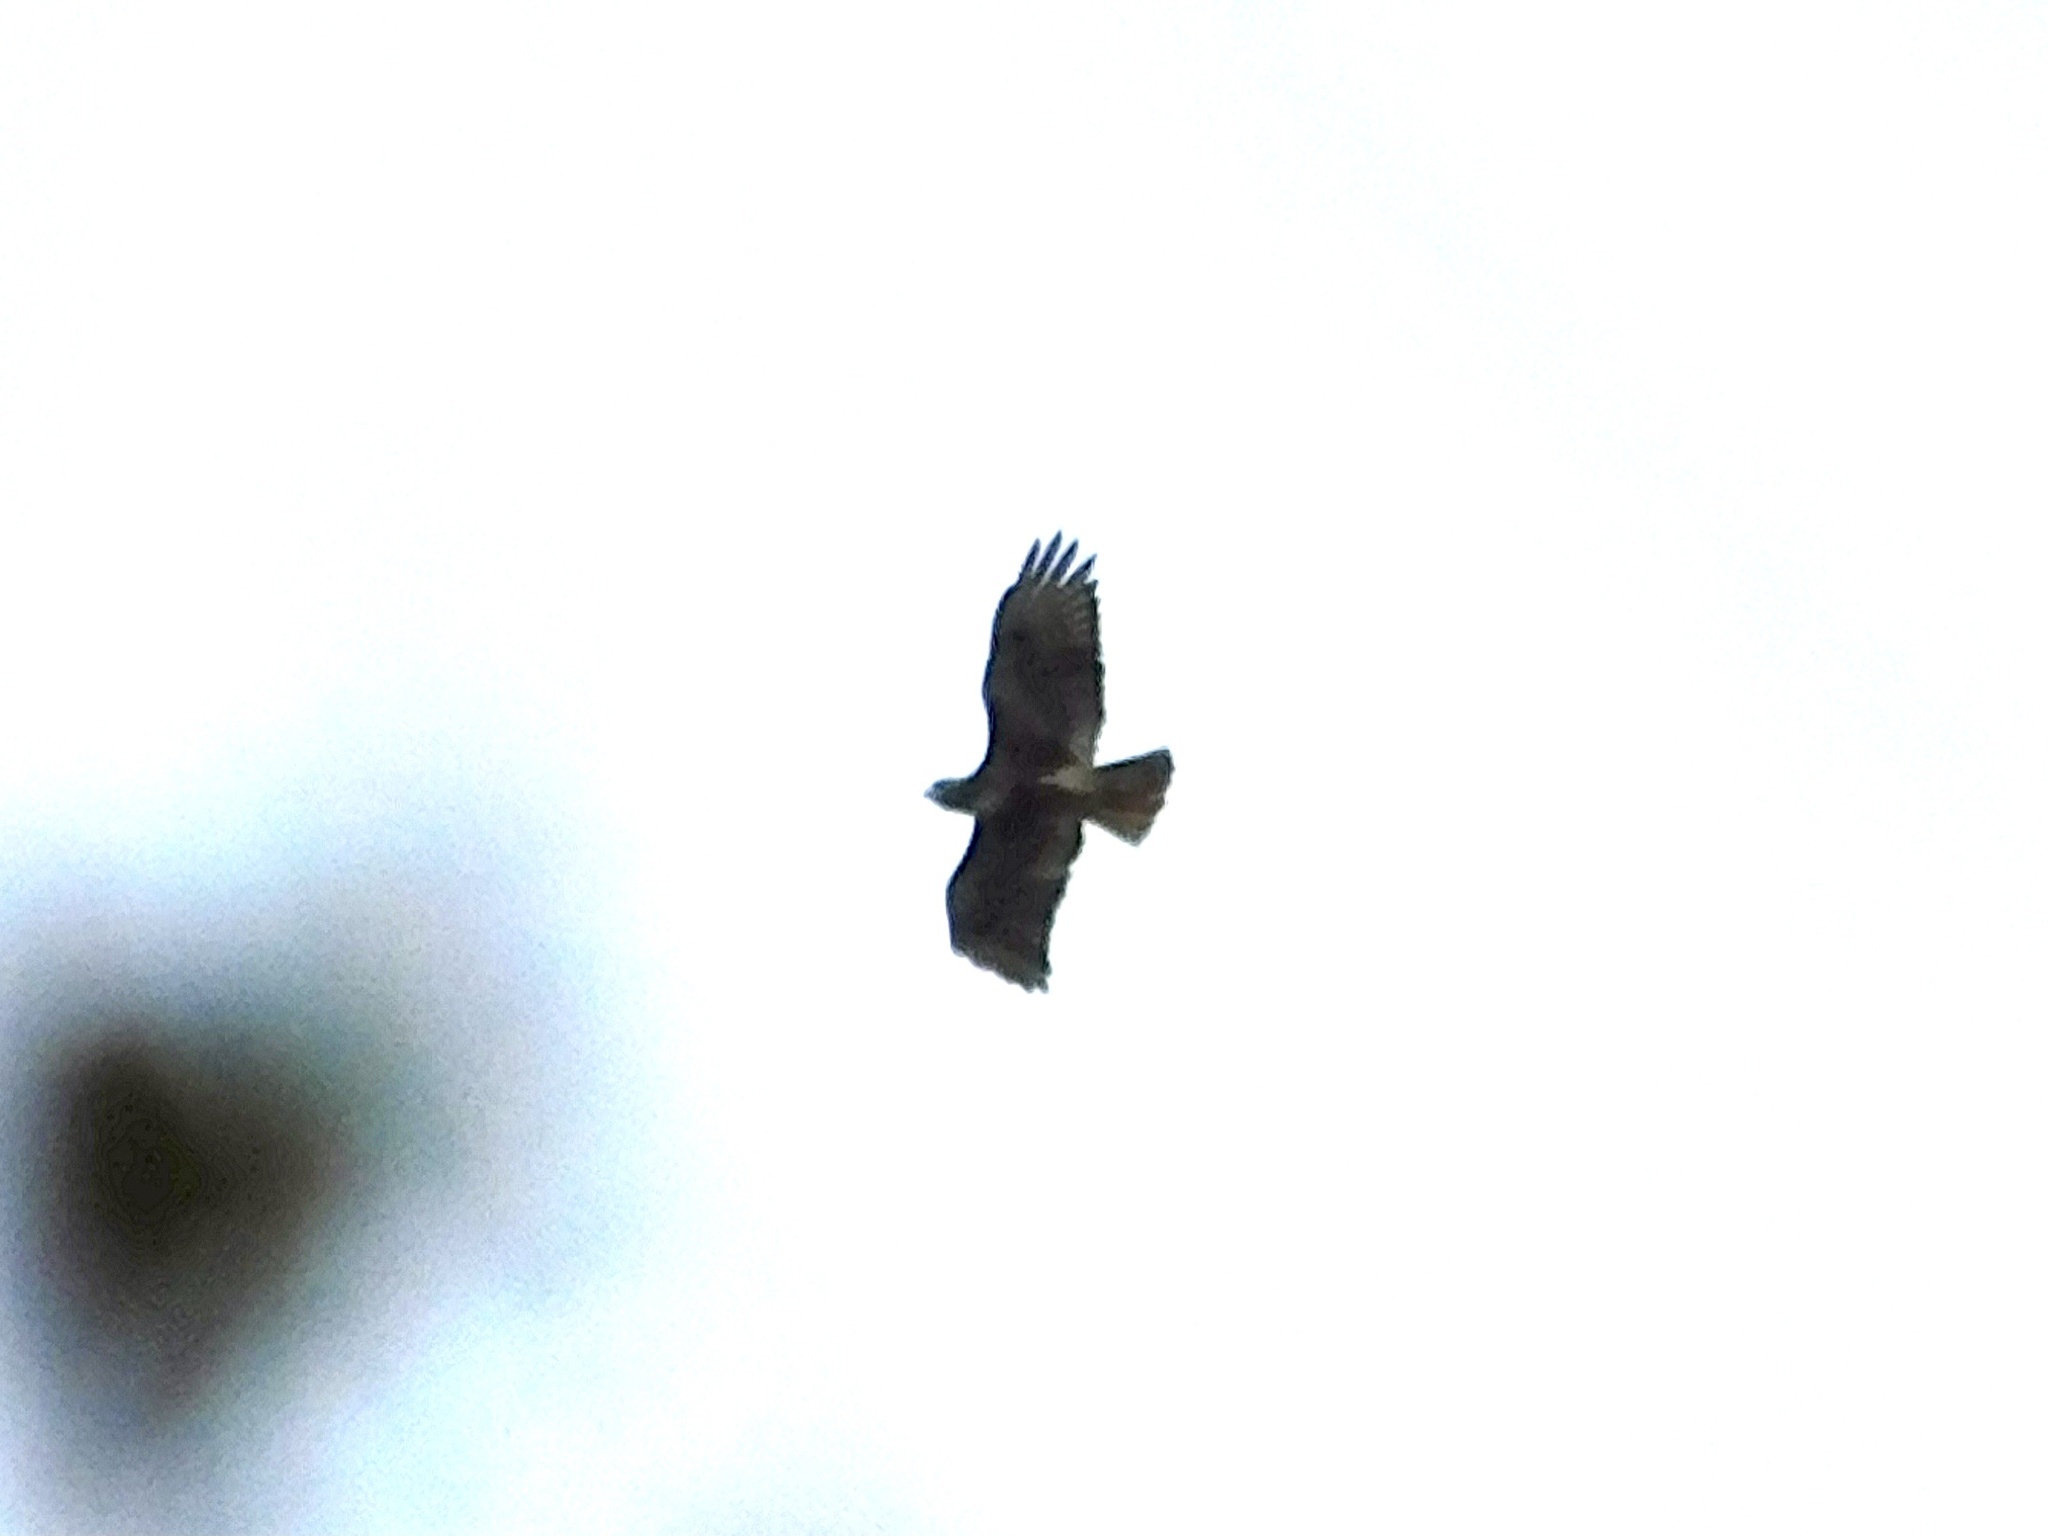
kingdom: Animalia
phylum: Chordata
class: Aves
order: Accipitriformes
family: Accipitridae
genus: Buteo
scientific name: Buteo jamaicensis
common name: Red-tailed hawk
